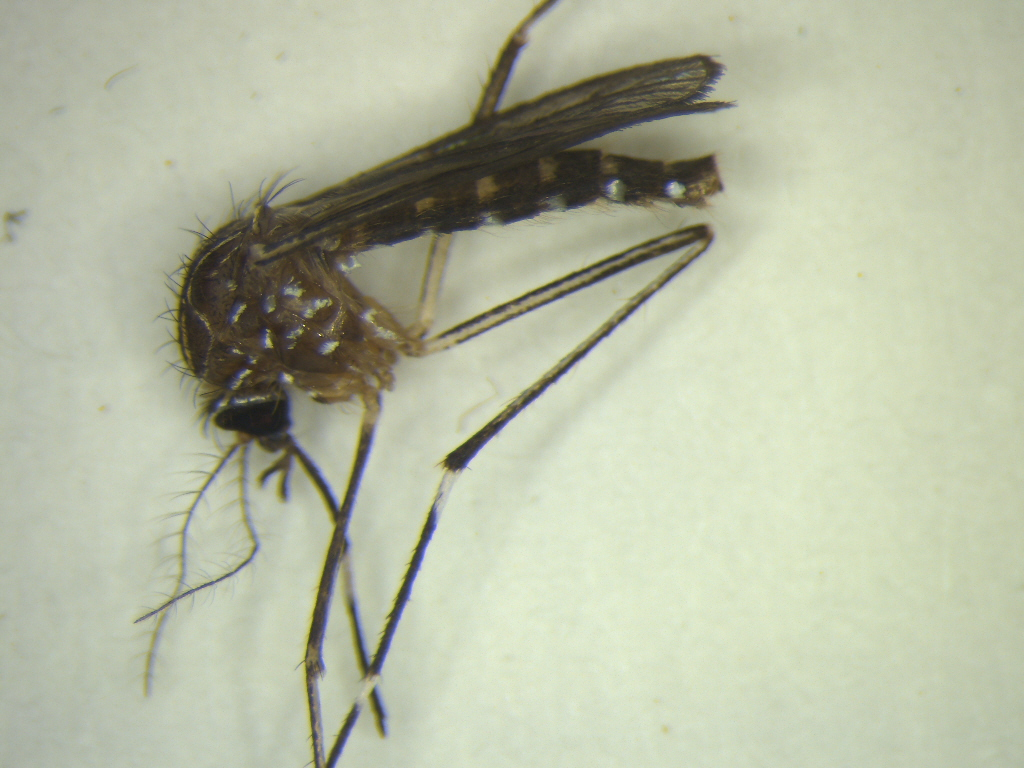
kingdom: Animalia
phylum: Arthropoda
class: Insecta
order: Diptera
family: Culicidae
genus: Aedes
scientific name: Aedes notoscriptus
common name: Australian backyard mosquito
